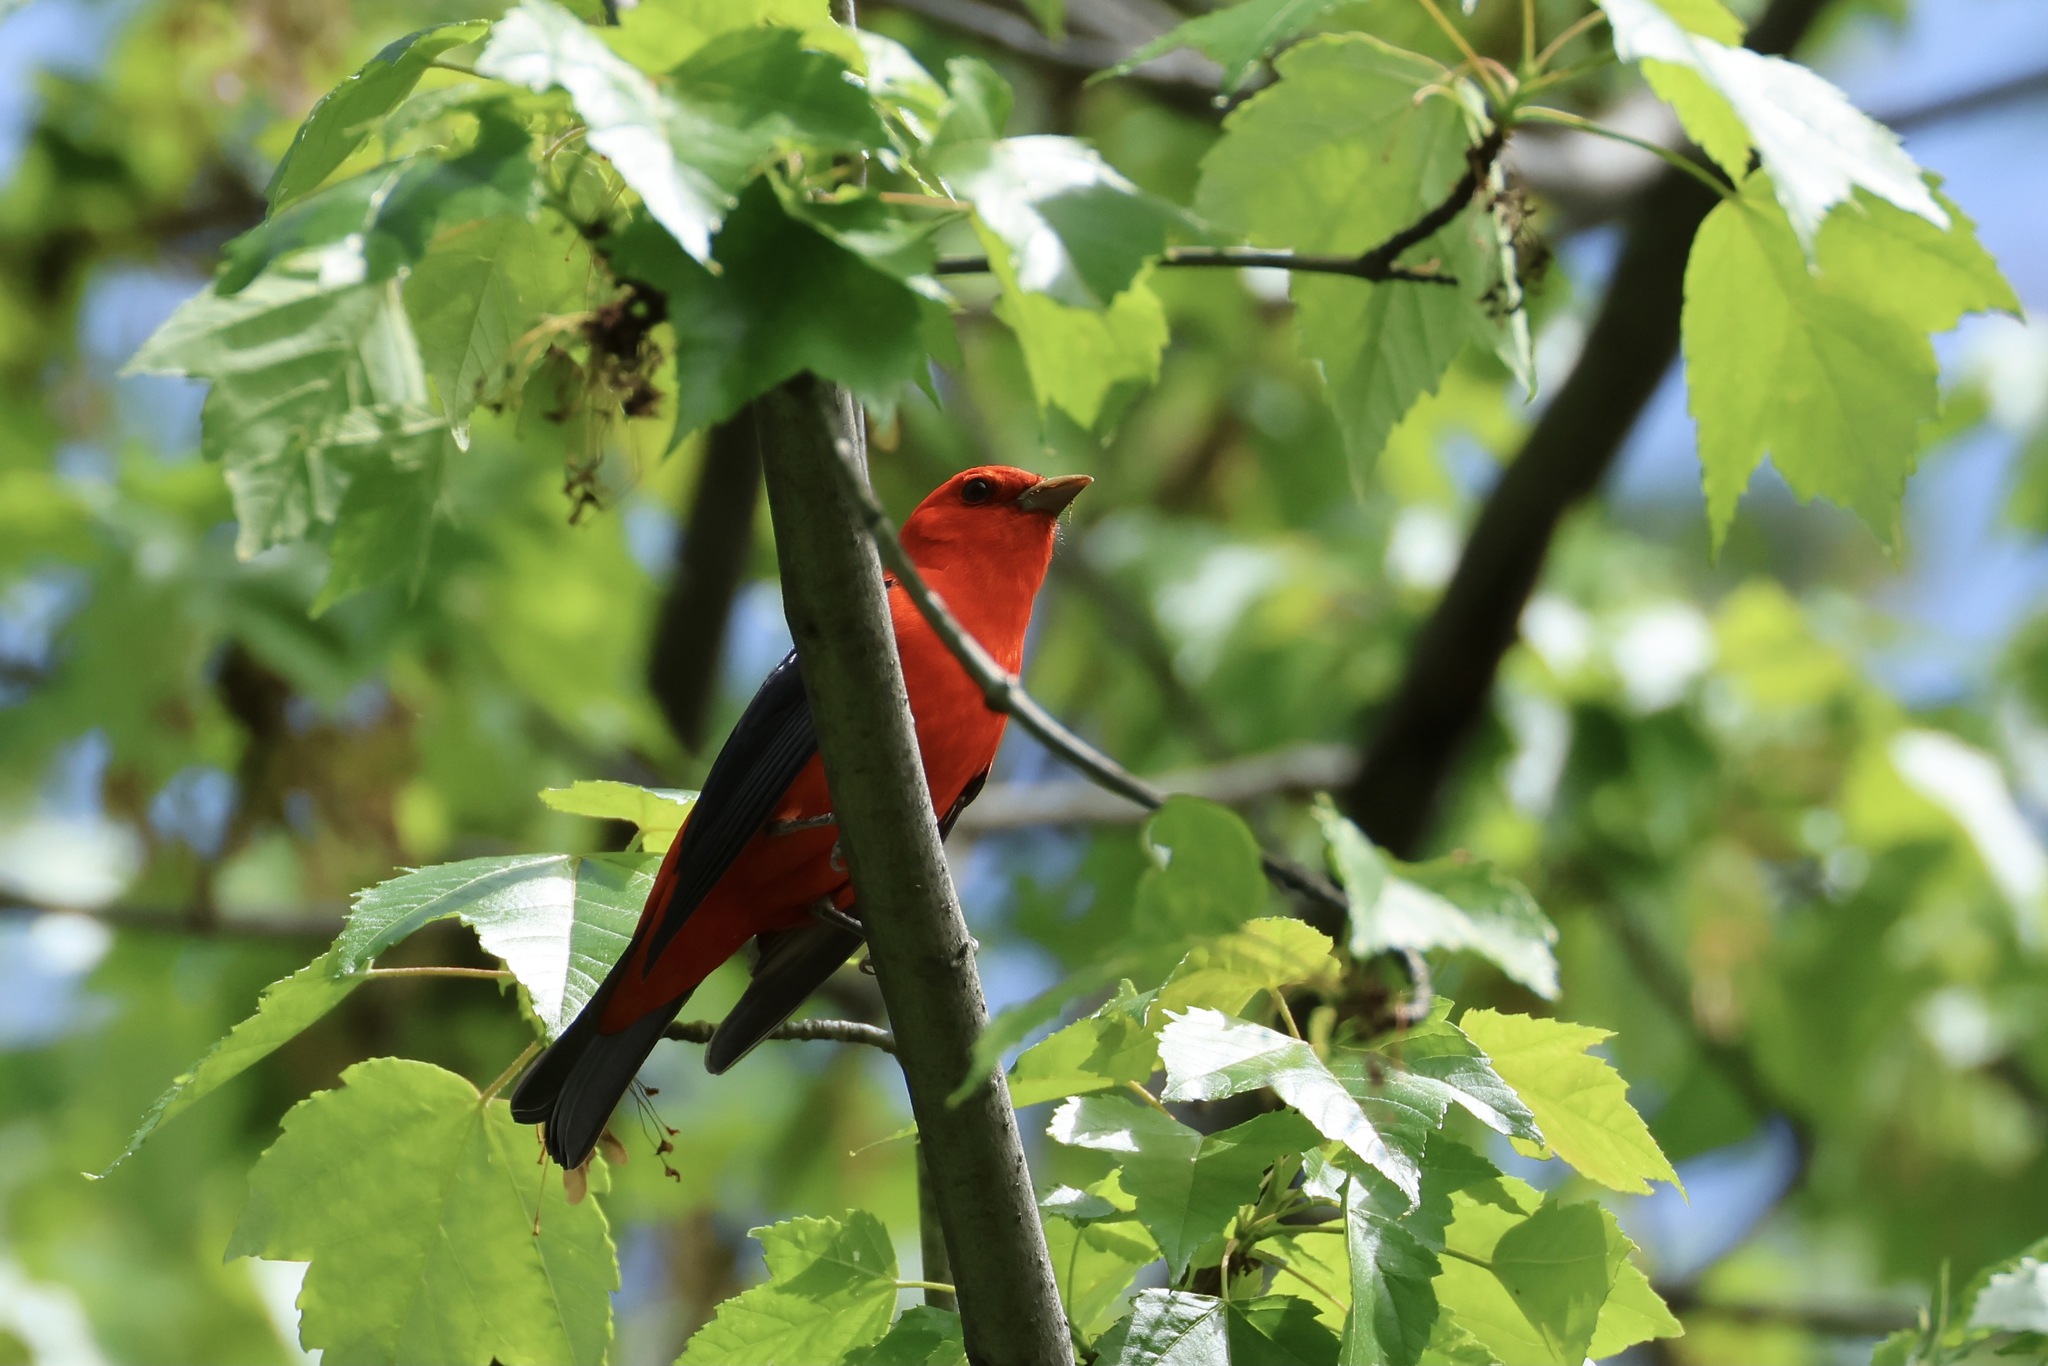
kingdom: Animalia
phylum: Chordata
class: Aves
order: Passeriformes
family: Cardinalidae
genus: Piranga
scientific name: Piranga olivacea
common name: Scarlet tanager
